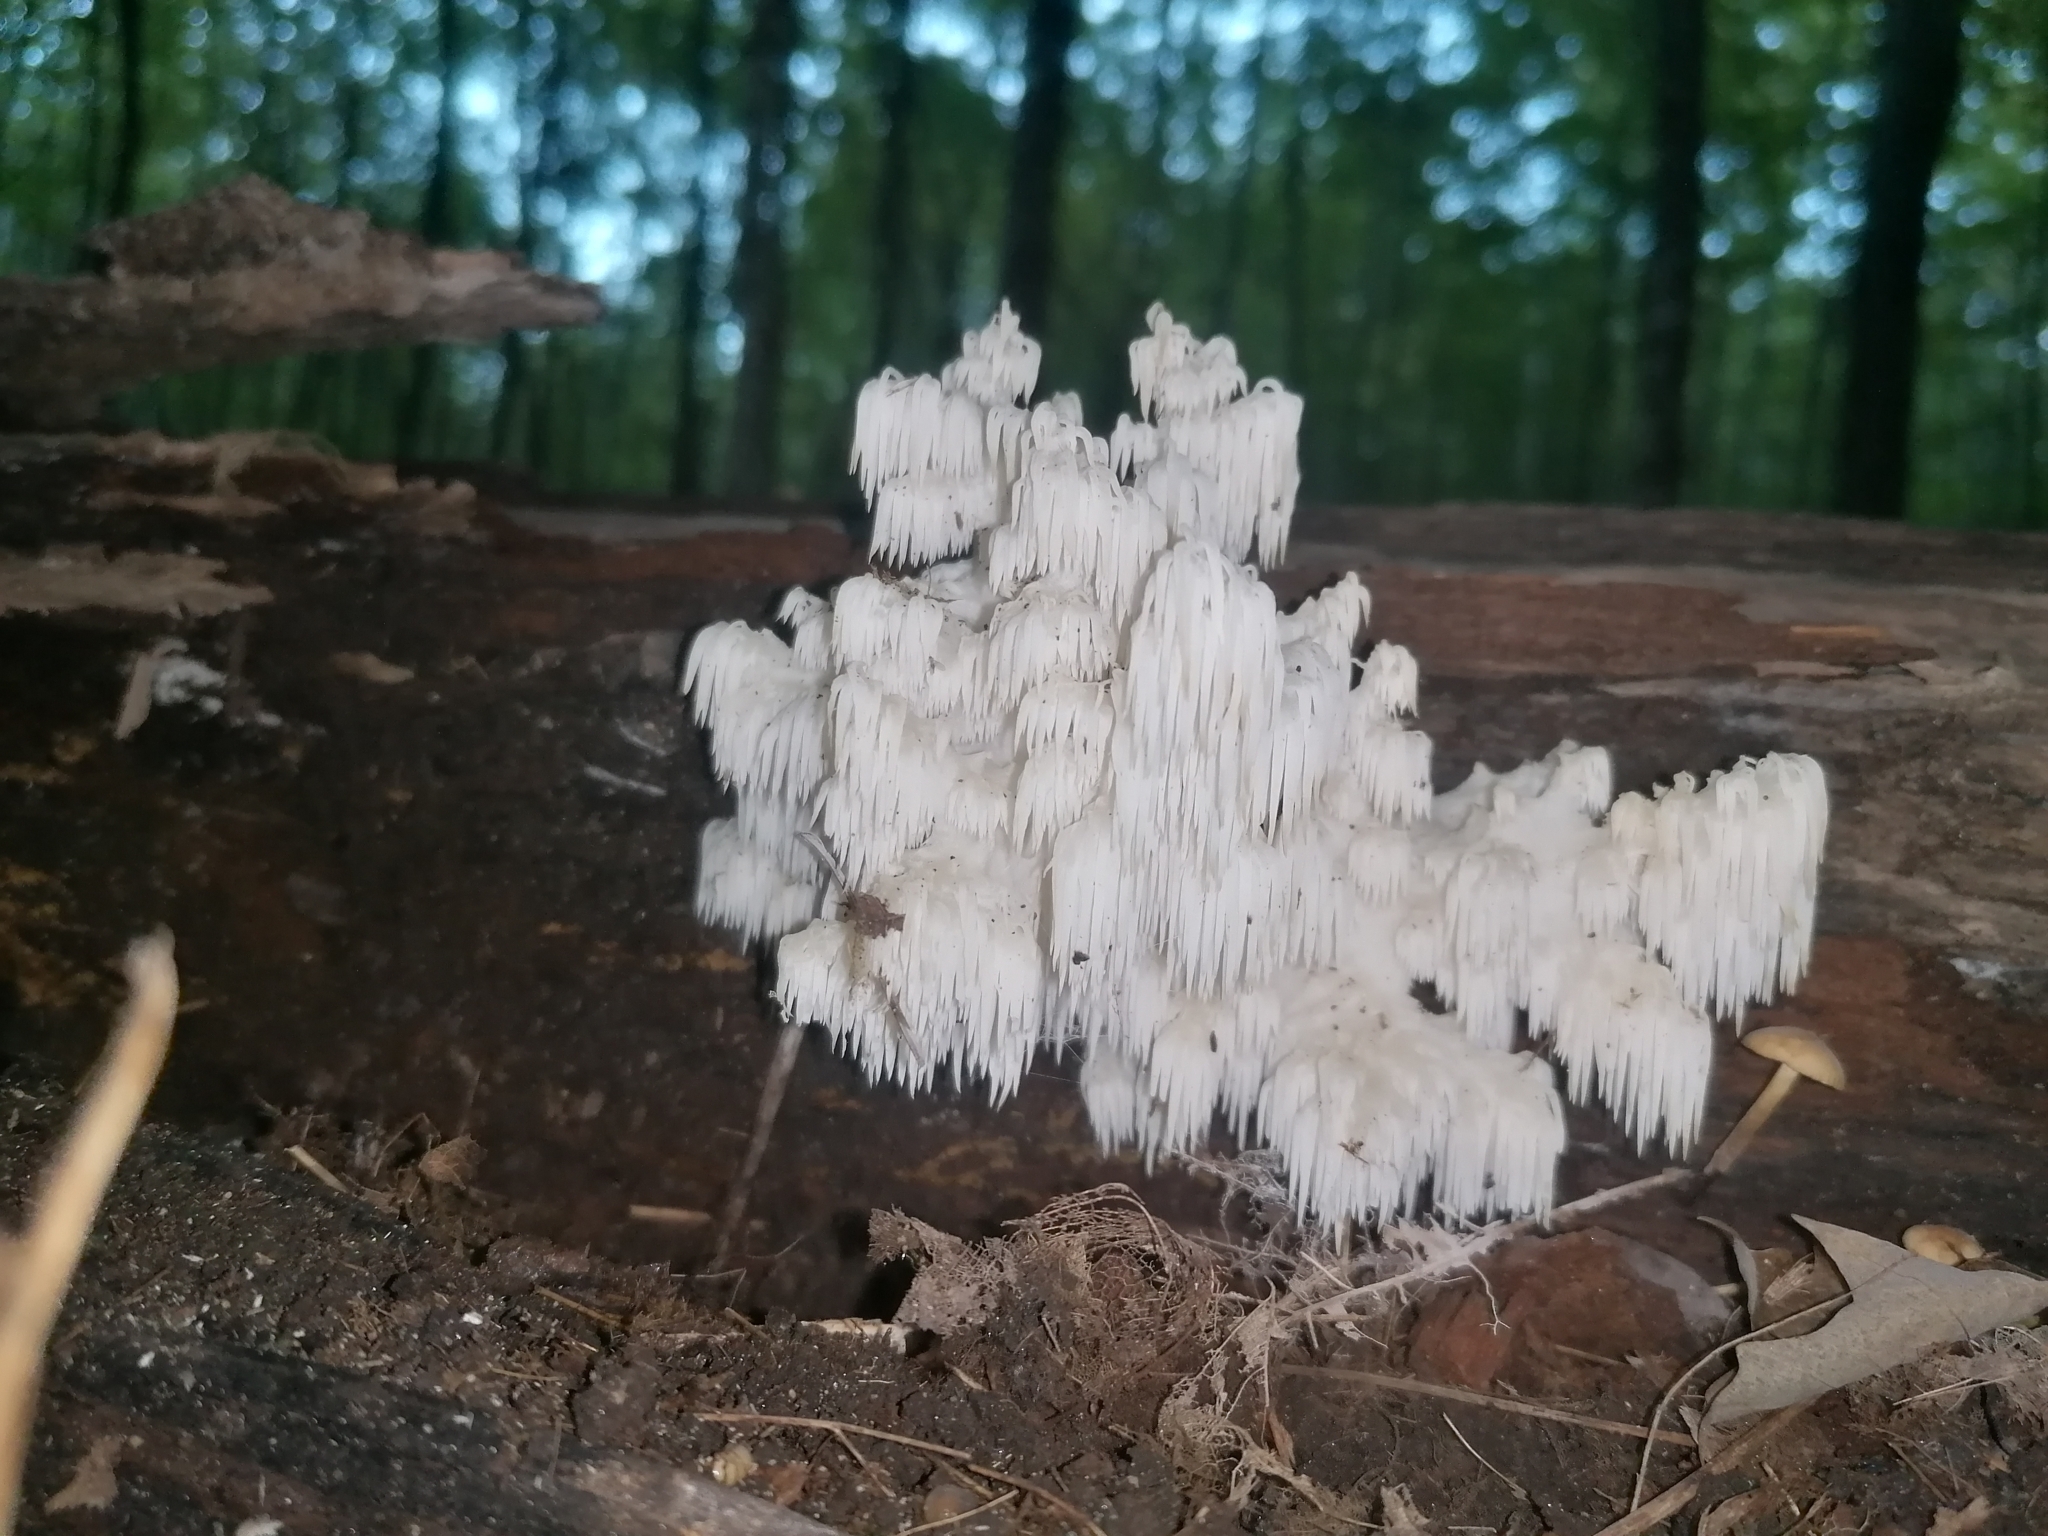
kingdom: Fungi
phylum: Basidiomycota
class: Agaricomycetes
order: Russulales
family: Hericiaceae
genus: Hericium
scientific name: Hericium americanum
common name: Bear's head tooth
